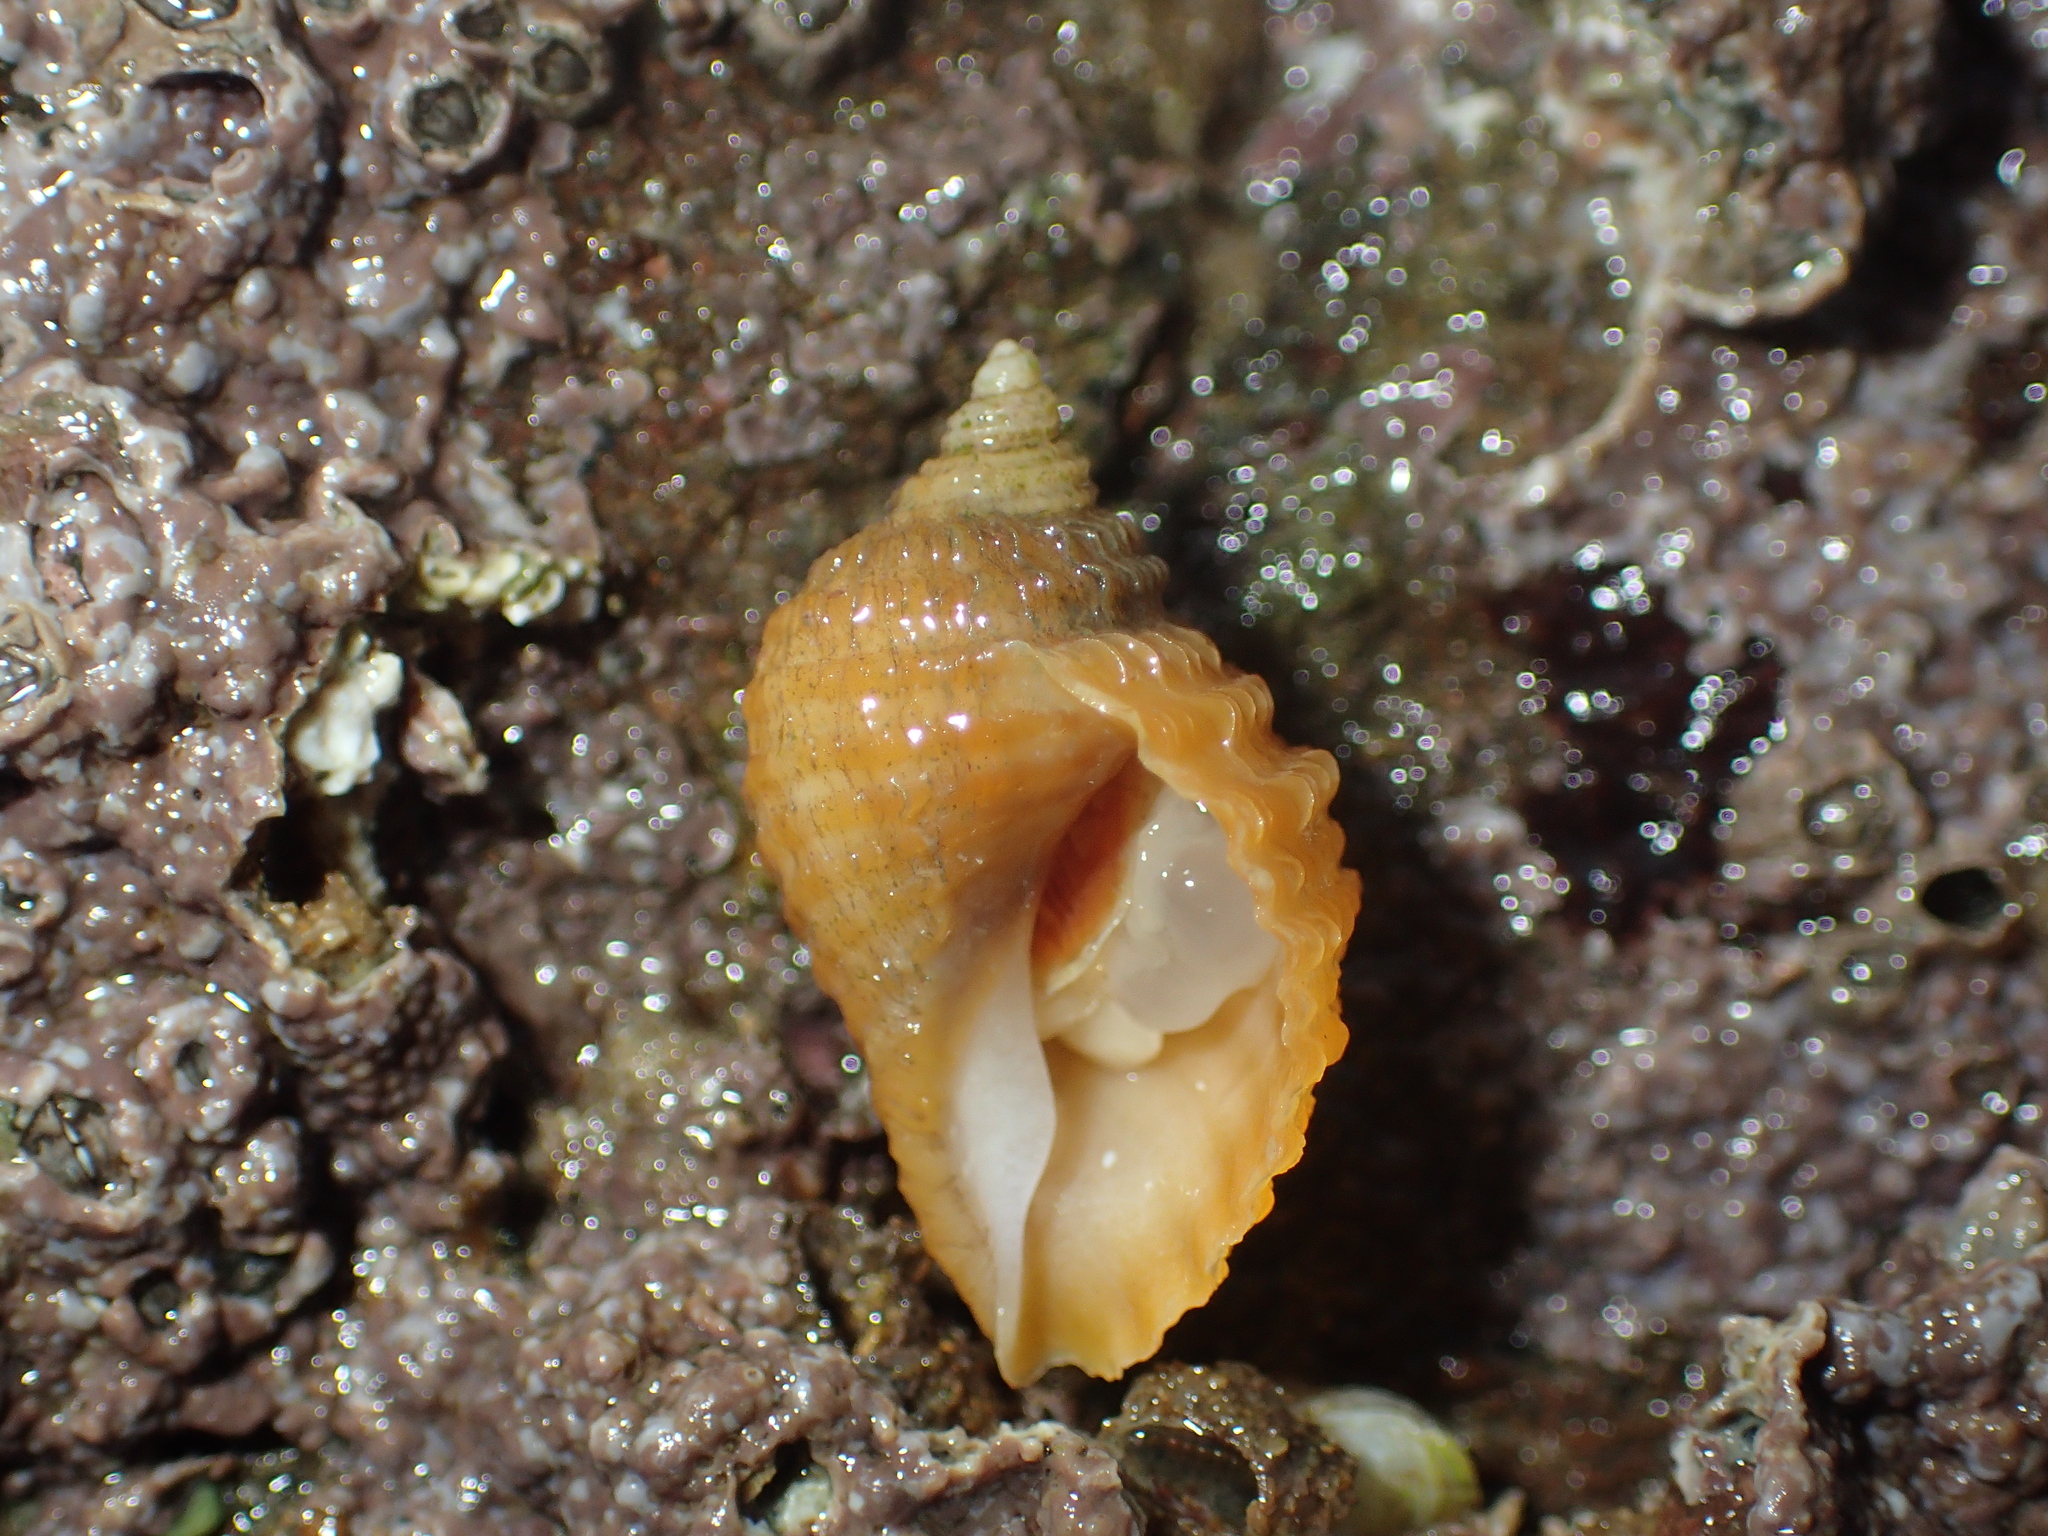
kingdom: Animalia
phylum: Mollusca
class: Gastropoda
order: Neogastropoda
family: Muricidae
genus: Nucella
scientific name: Nucella lapillus
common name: Dog whelk
